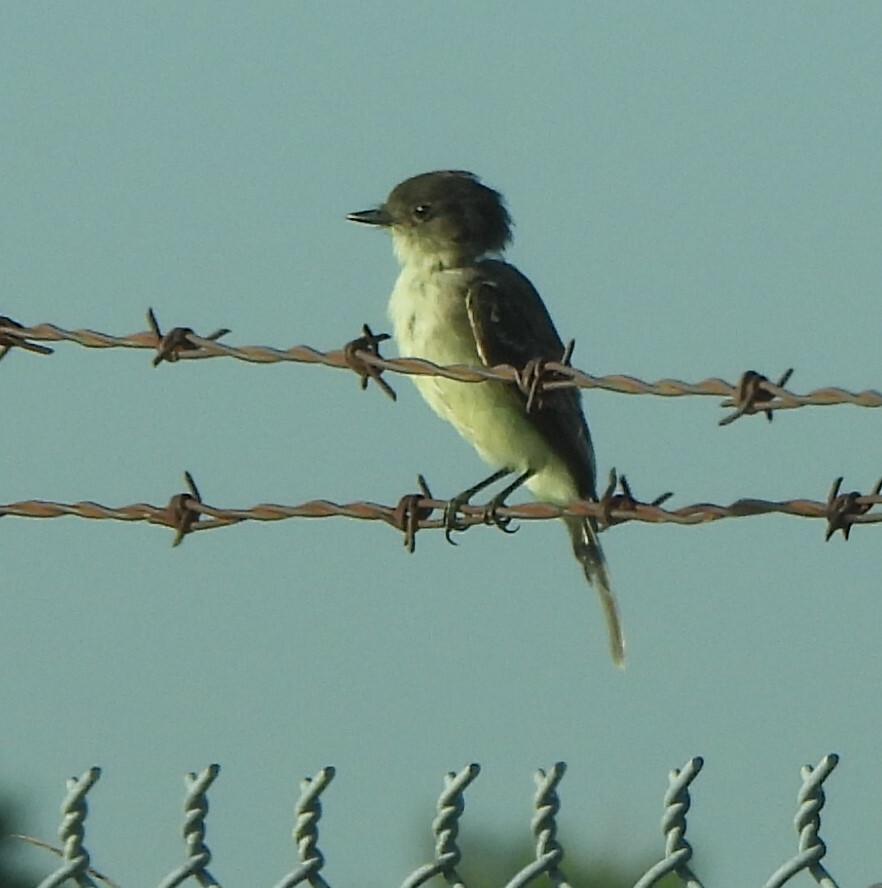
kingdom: Animalia
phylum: Chordata
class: Aves
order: Passeriformes
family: Tyrannidae
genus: Sayornis
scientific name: Sayornis phoebe
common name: Eastern phoebe
